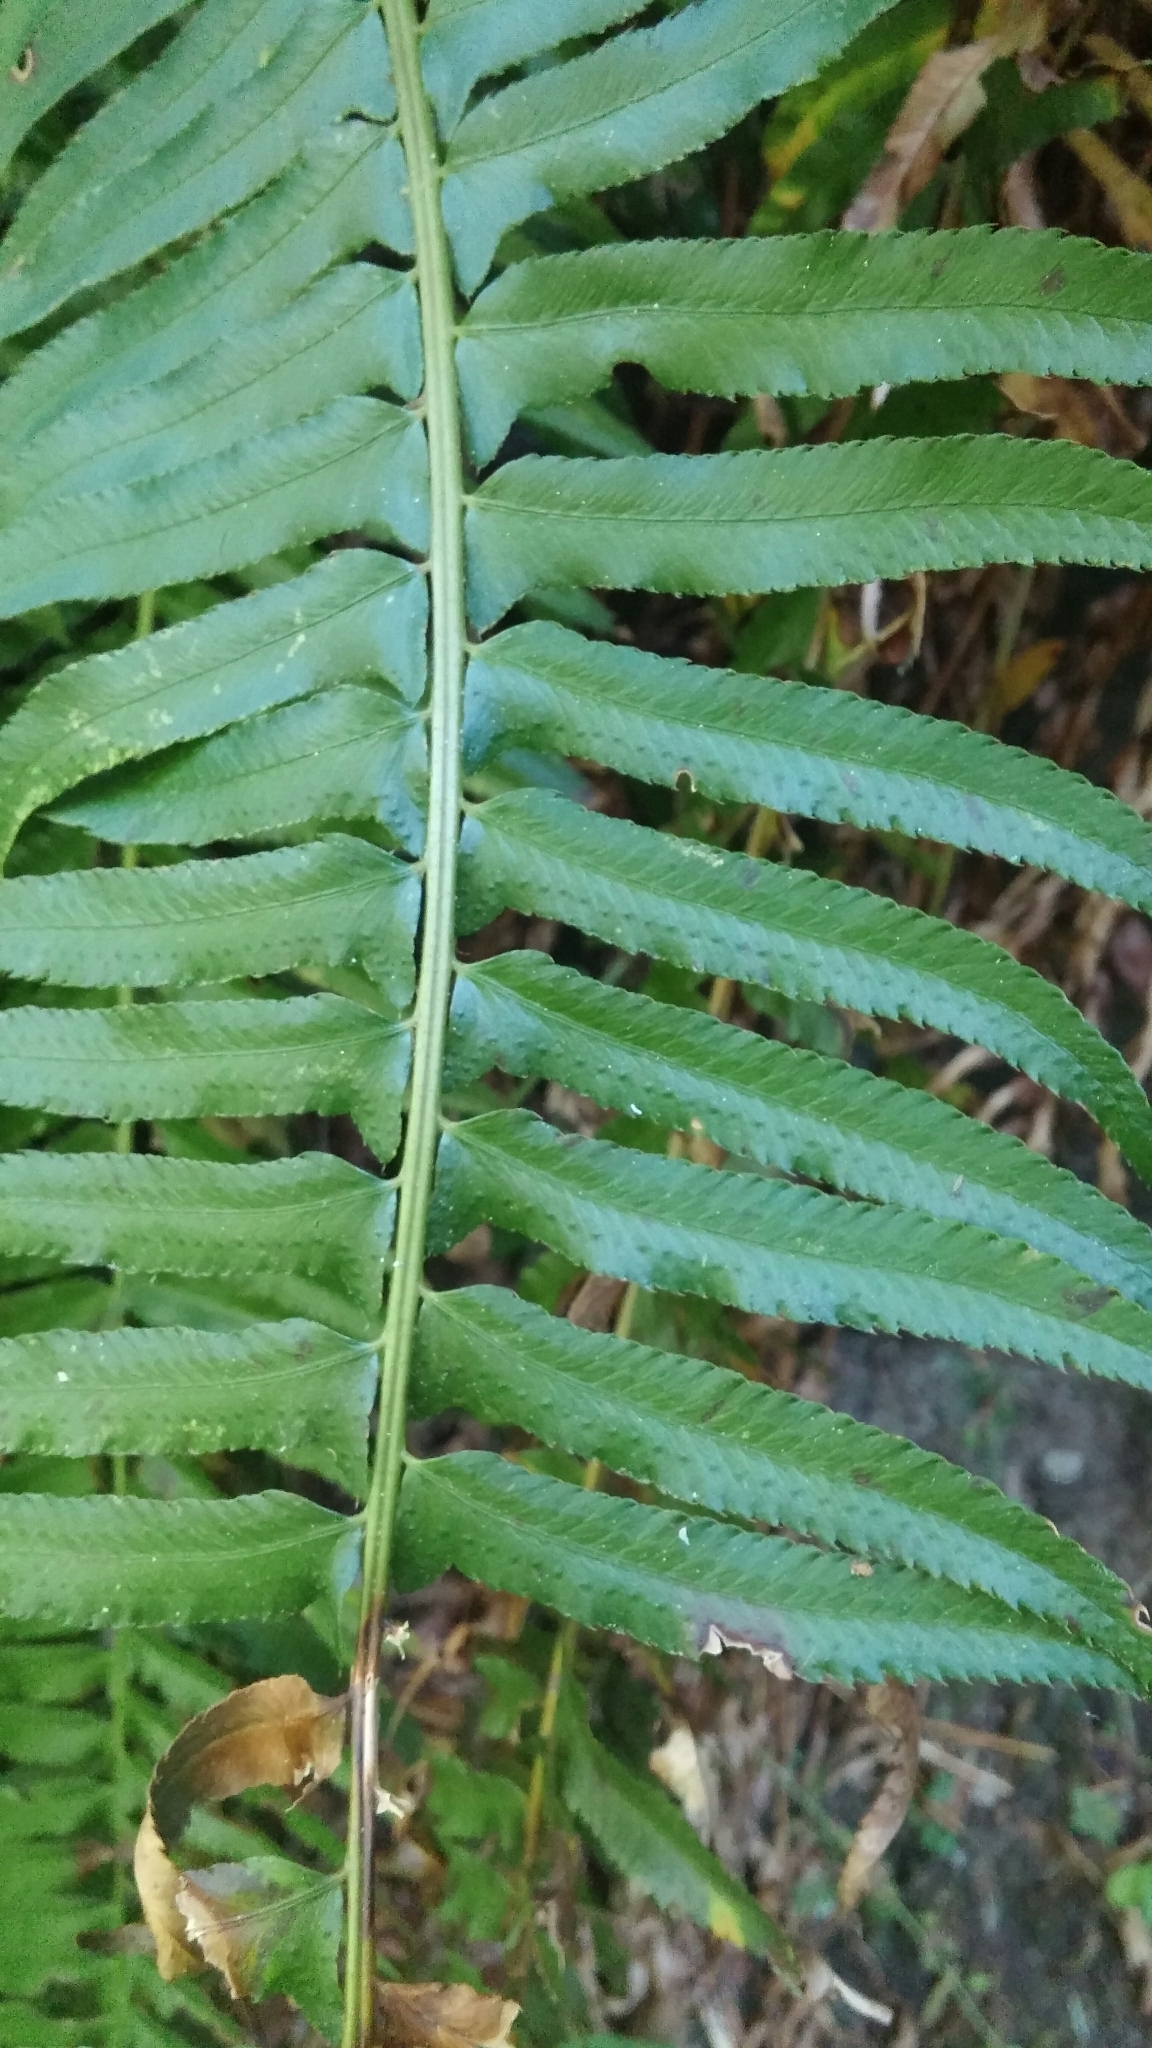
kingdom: Plantae
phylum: Tracheophyta
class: Polypodiopsida
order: Polypodiales
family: Dryopteridaceae
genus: Polystichum
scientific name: Polystichum munitum
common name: Western sword-fern
